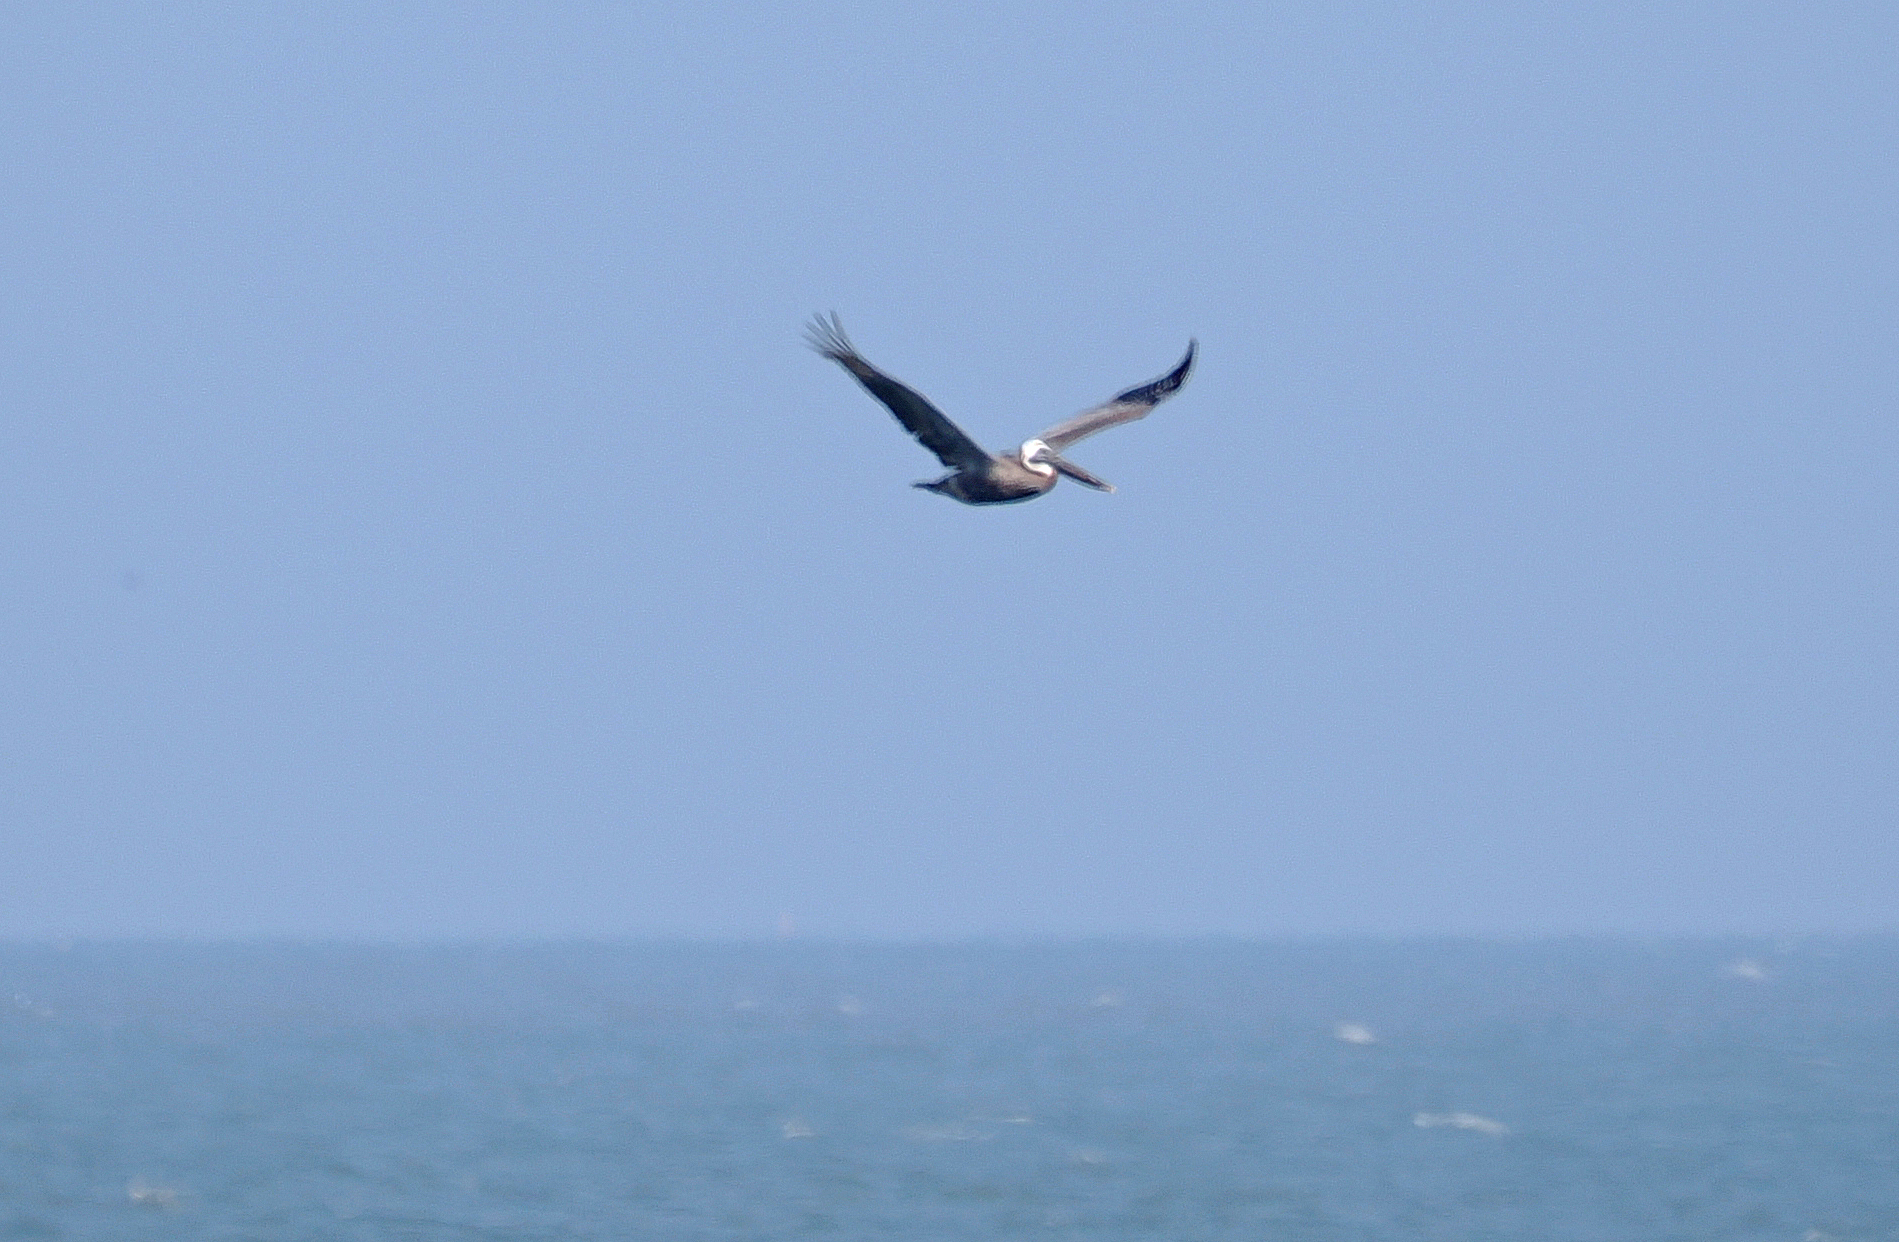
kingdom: Animalia
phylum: Chordata
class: Aves
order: Pelecaniformes
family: Pelecanidae
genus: Pelecanus
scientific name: Pelecanus occidentalis
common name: Brown pelican
